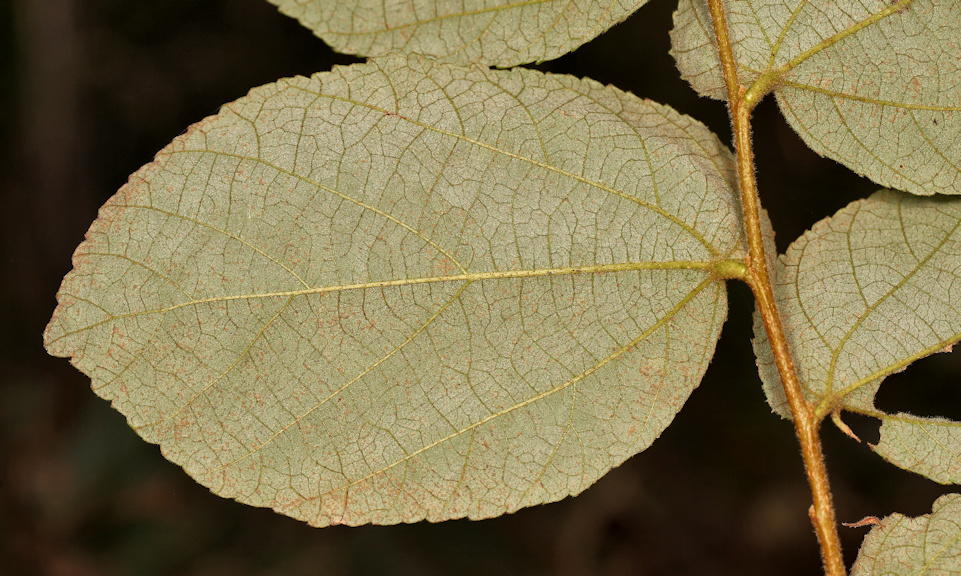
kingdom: Plantae
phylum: Tracheophyta
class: Magnoliopsida
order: Malvales
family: Malvaceae
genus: Grewia
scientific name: Grewia monticola
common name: Grey raisin
